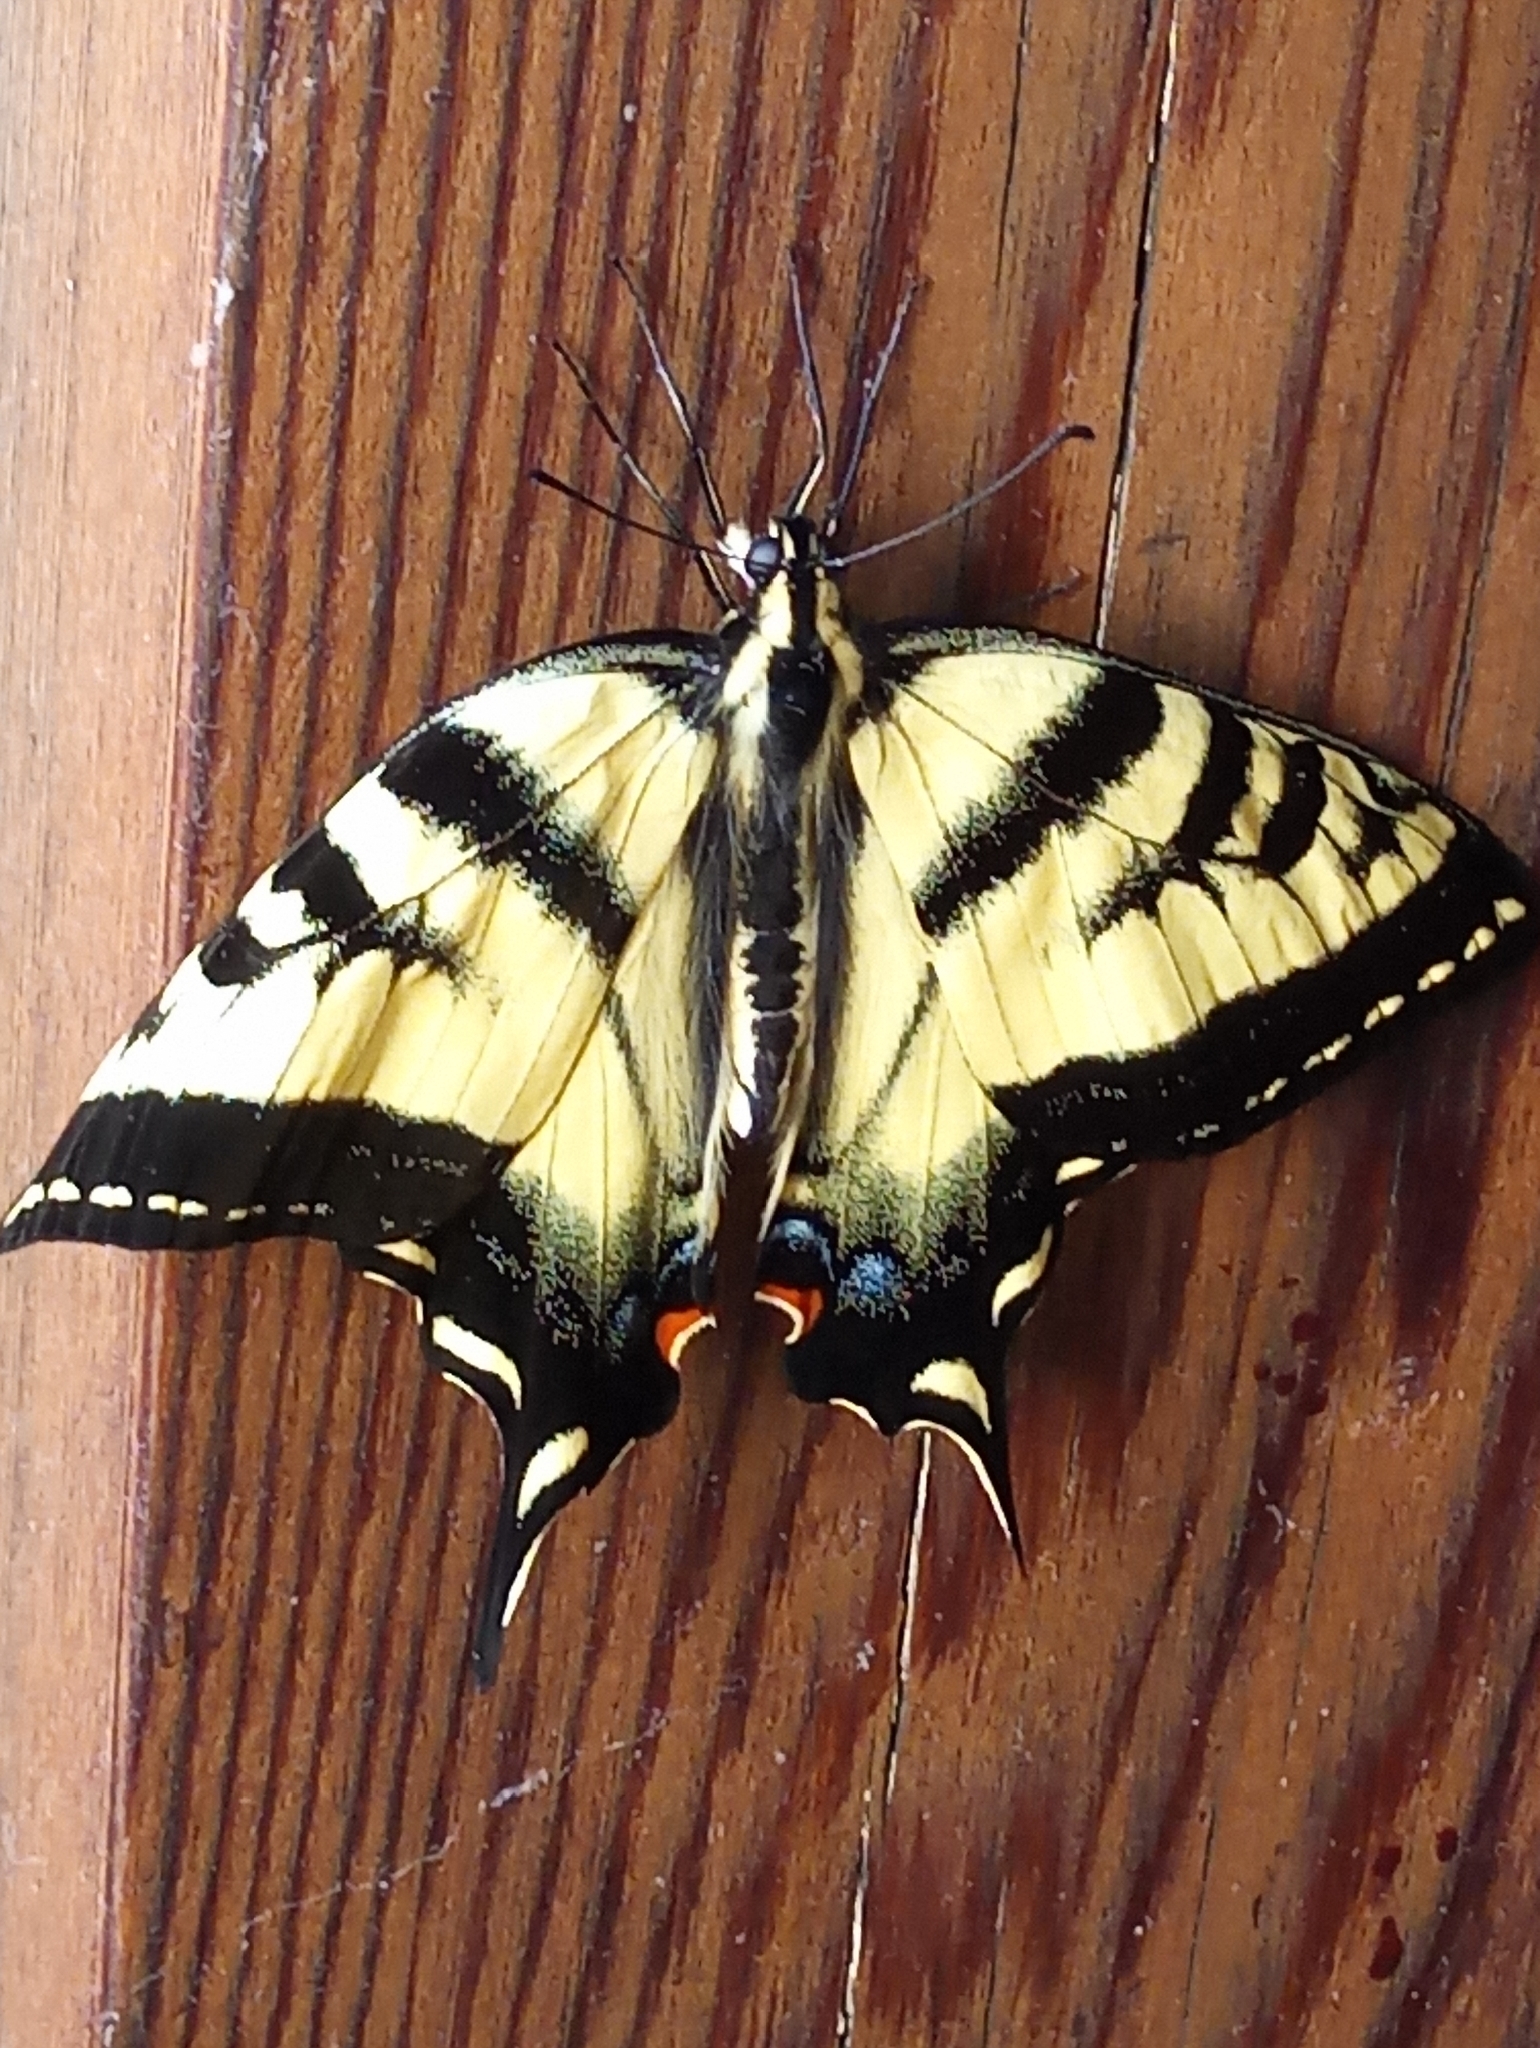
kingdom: Animalia
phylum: Arthropoda
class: Insecta
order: Lepidoptera
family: Papilionidae
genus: Papilio
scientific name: Papilio rutulus
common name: Western tiger swallowtail
